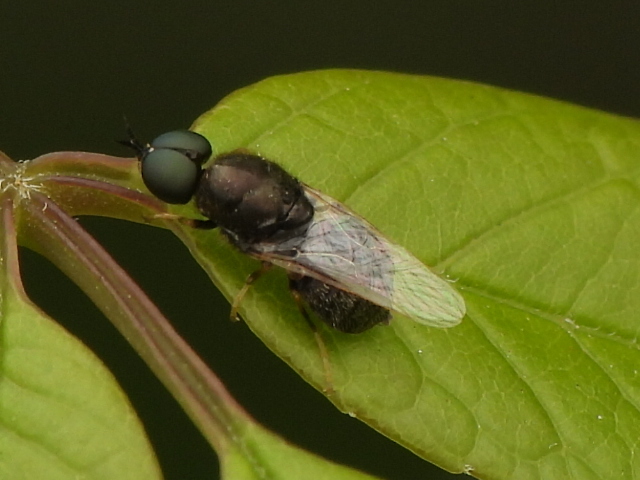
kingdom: Animalia
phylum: Arthropoda
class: Insecta
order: Diptera
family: Stratiomyidae
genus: Nemotelus
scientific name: Nemotelus bruesii
